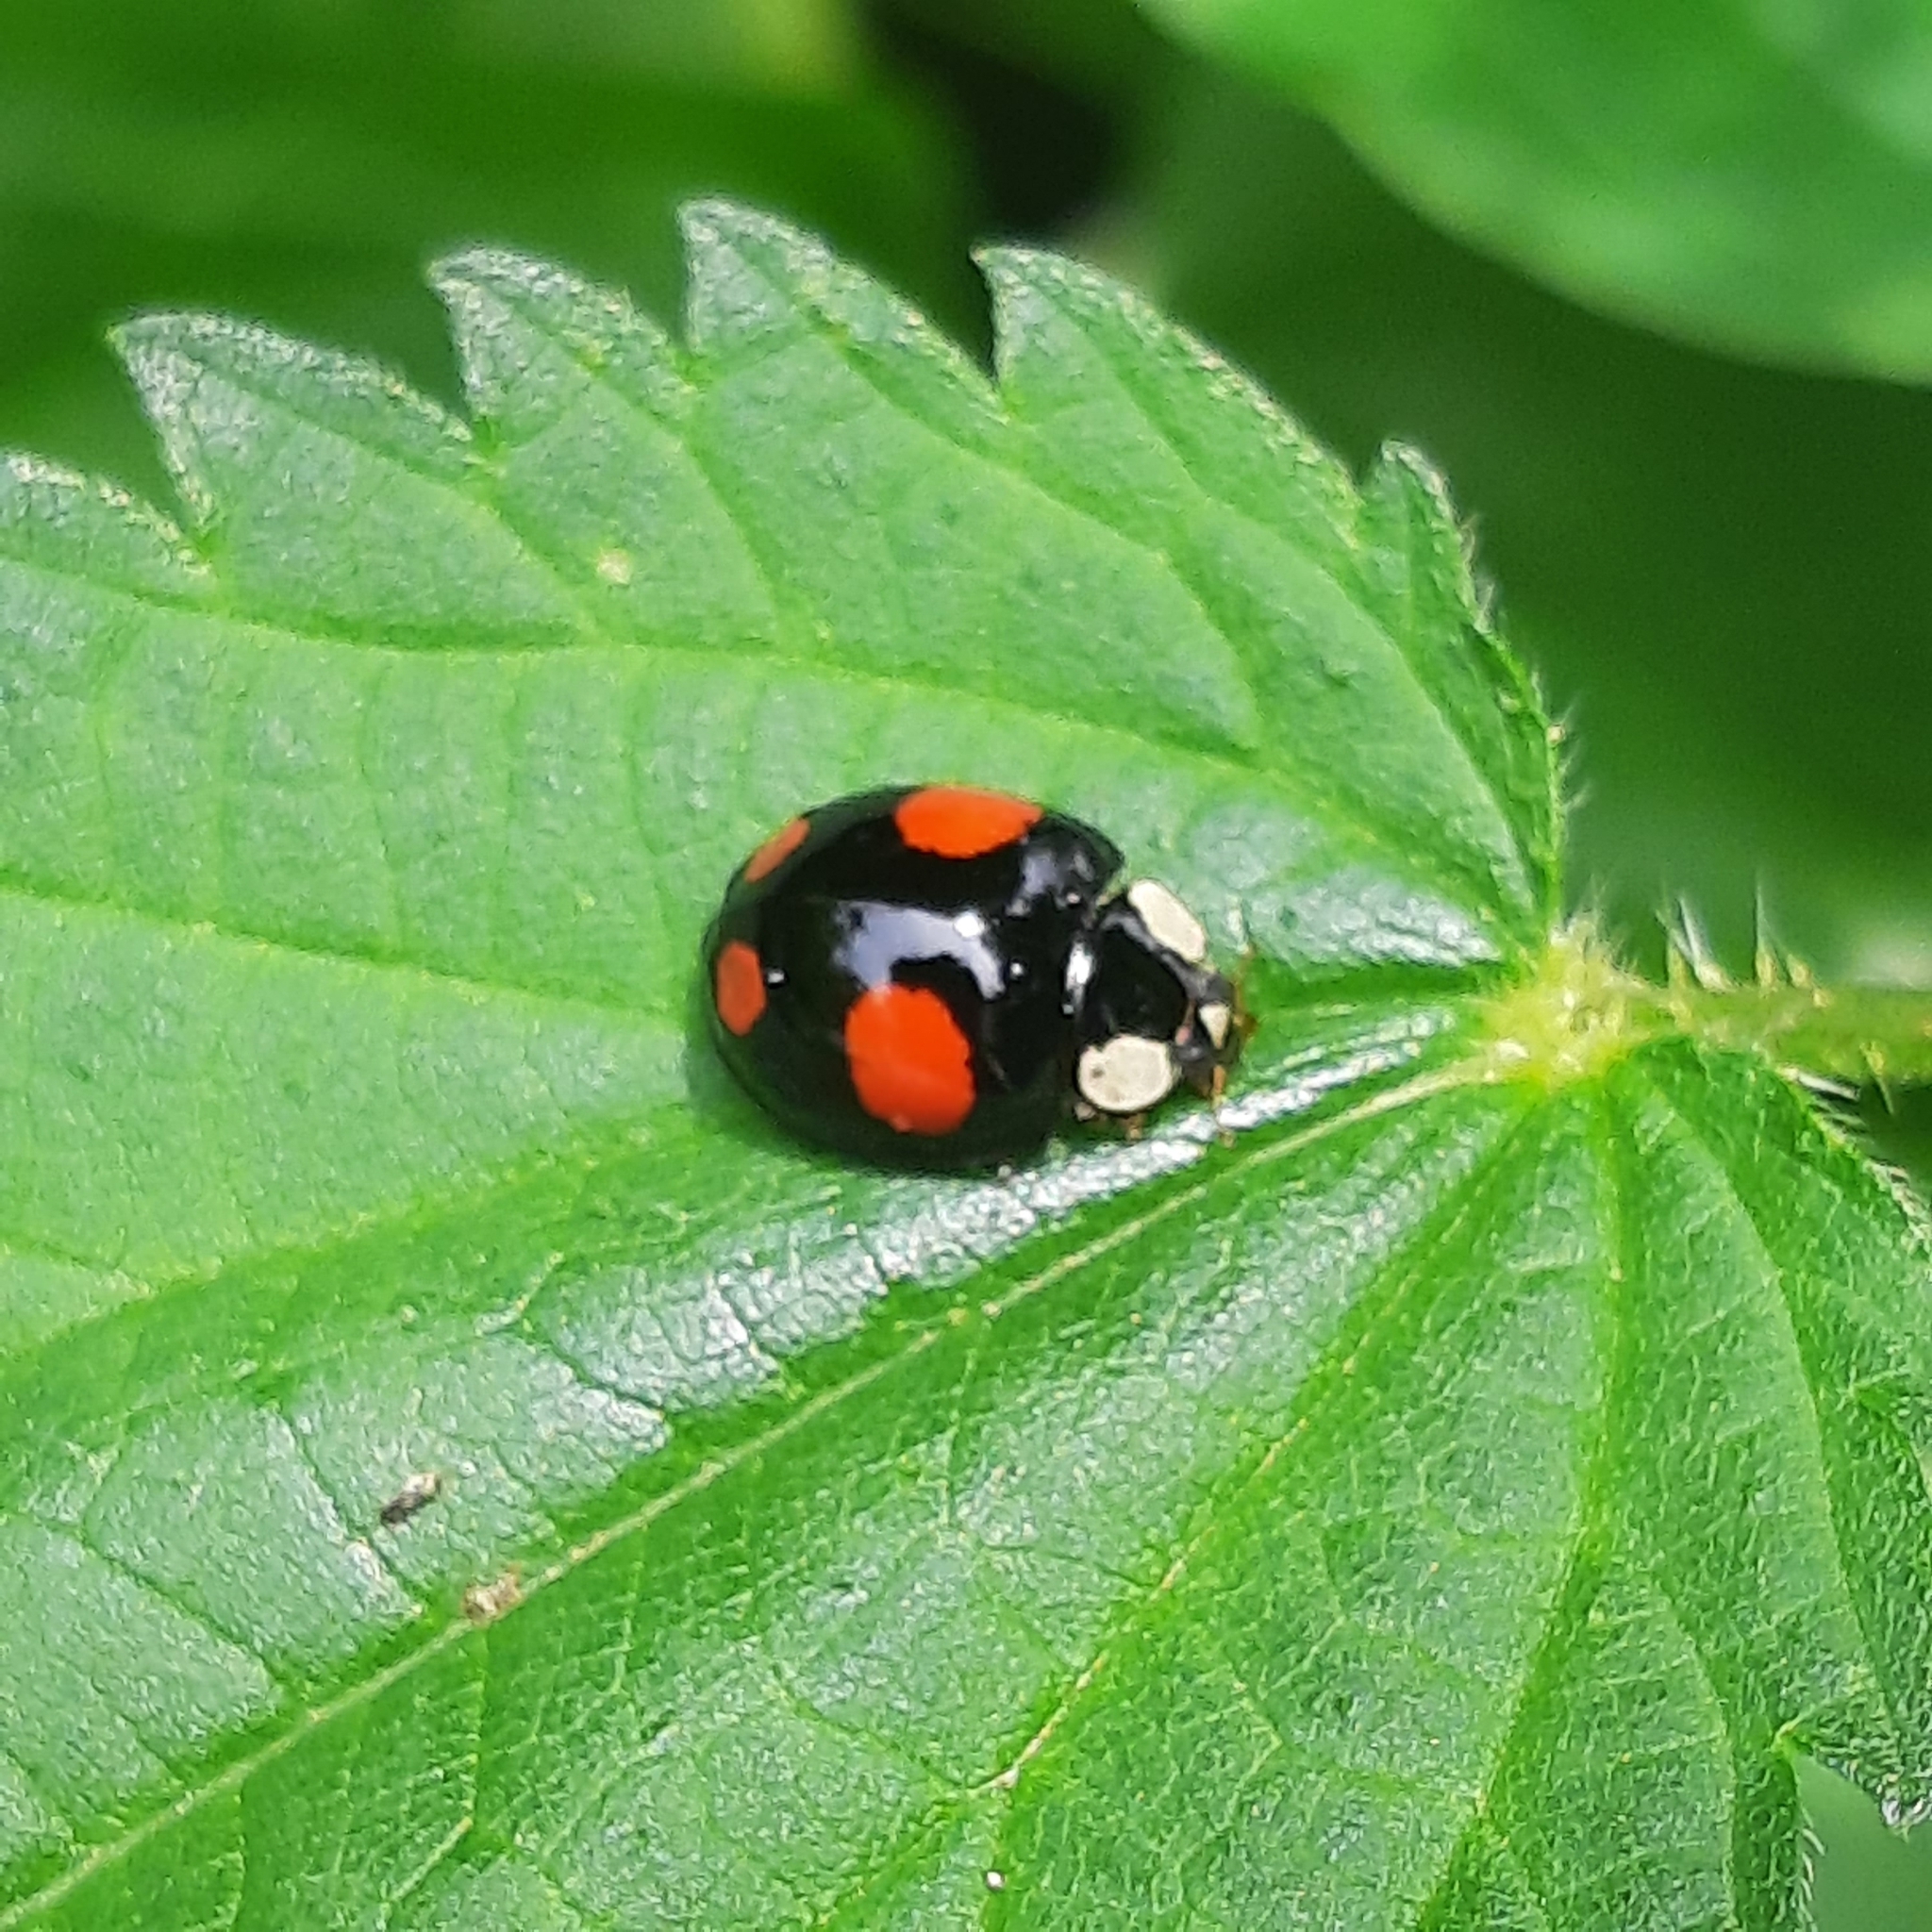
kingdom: Animalia
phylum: Arthropoda
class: Insecta
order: Coleoptera
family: Coccinellidae
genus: Harmonia
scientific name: Harmonia axyridis
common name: Harlequin ladybird
